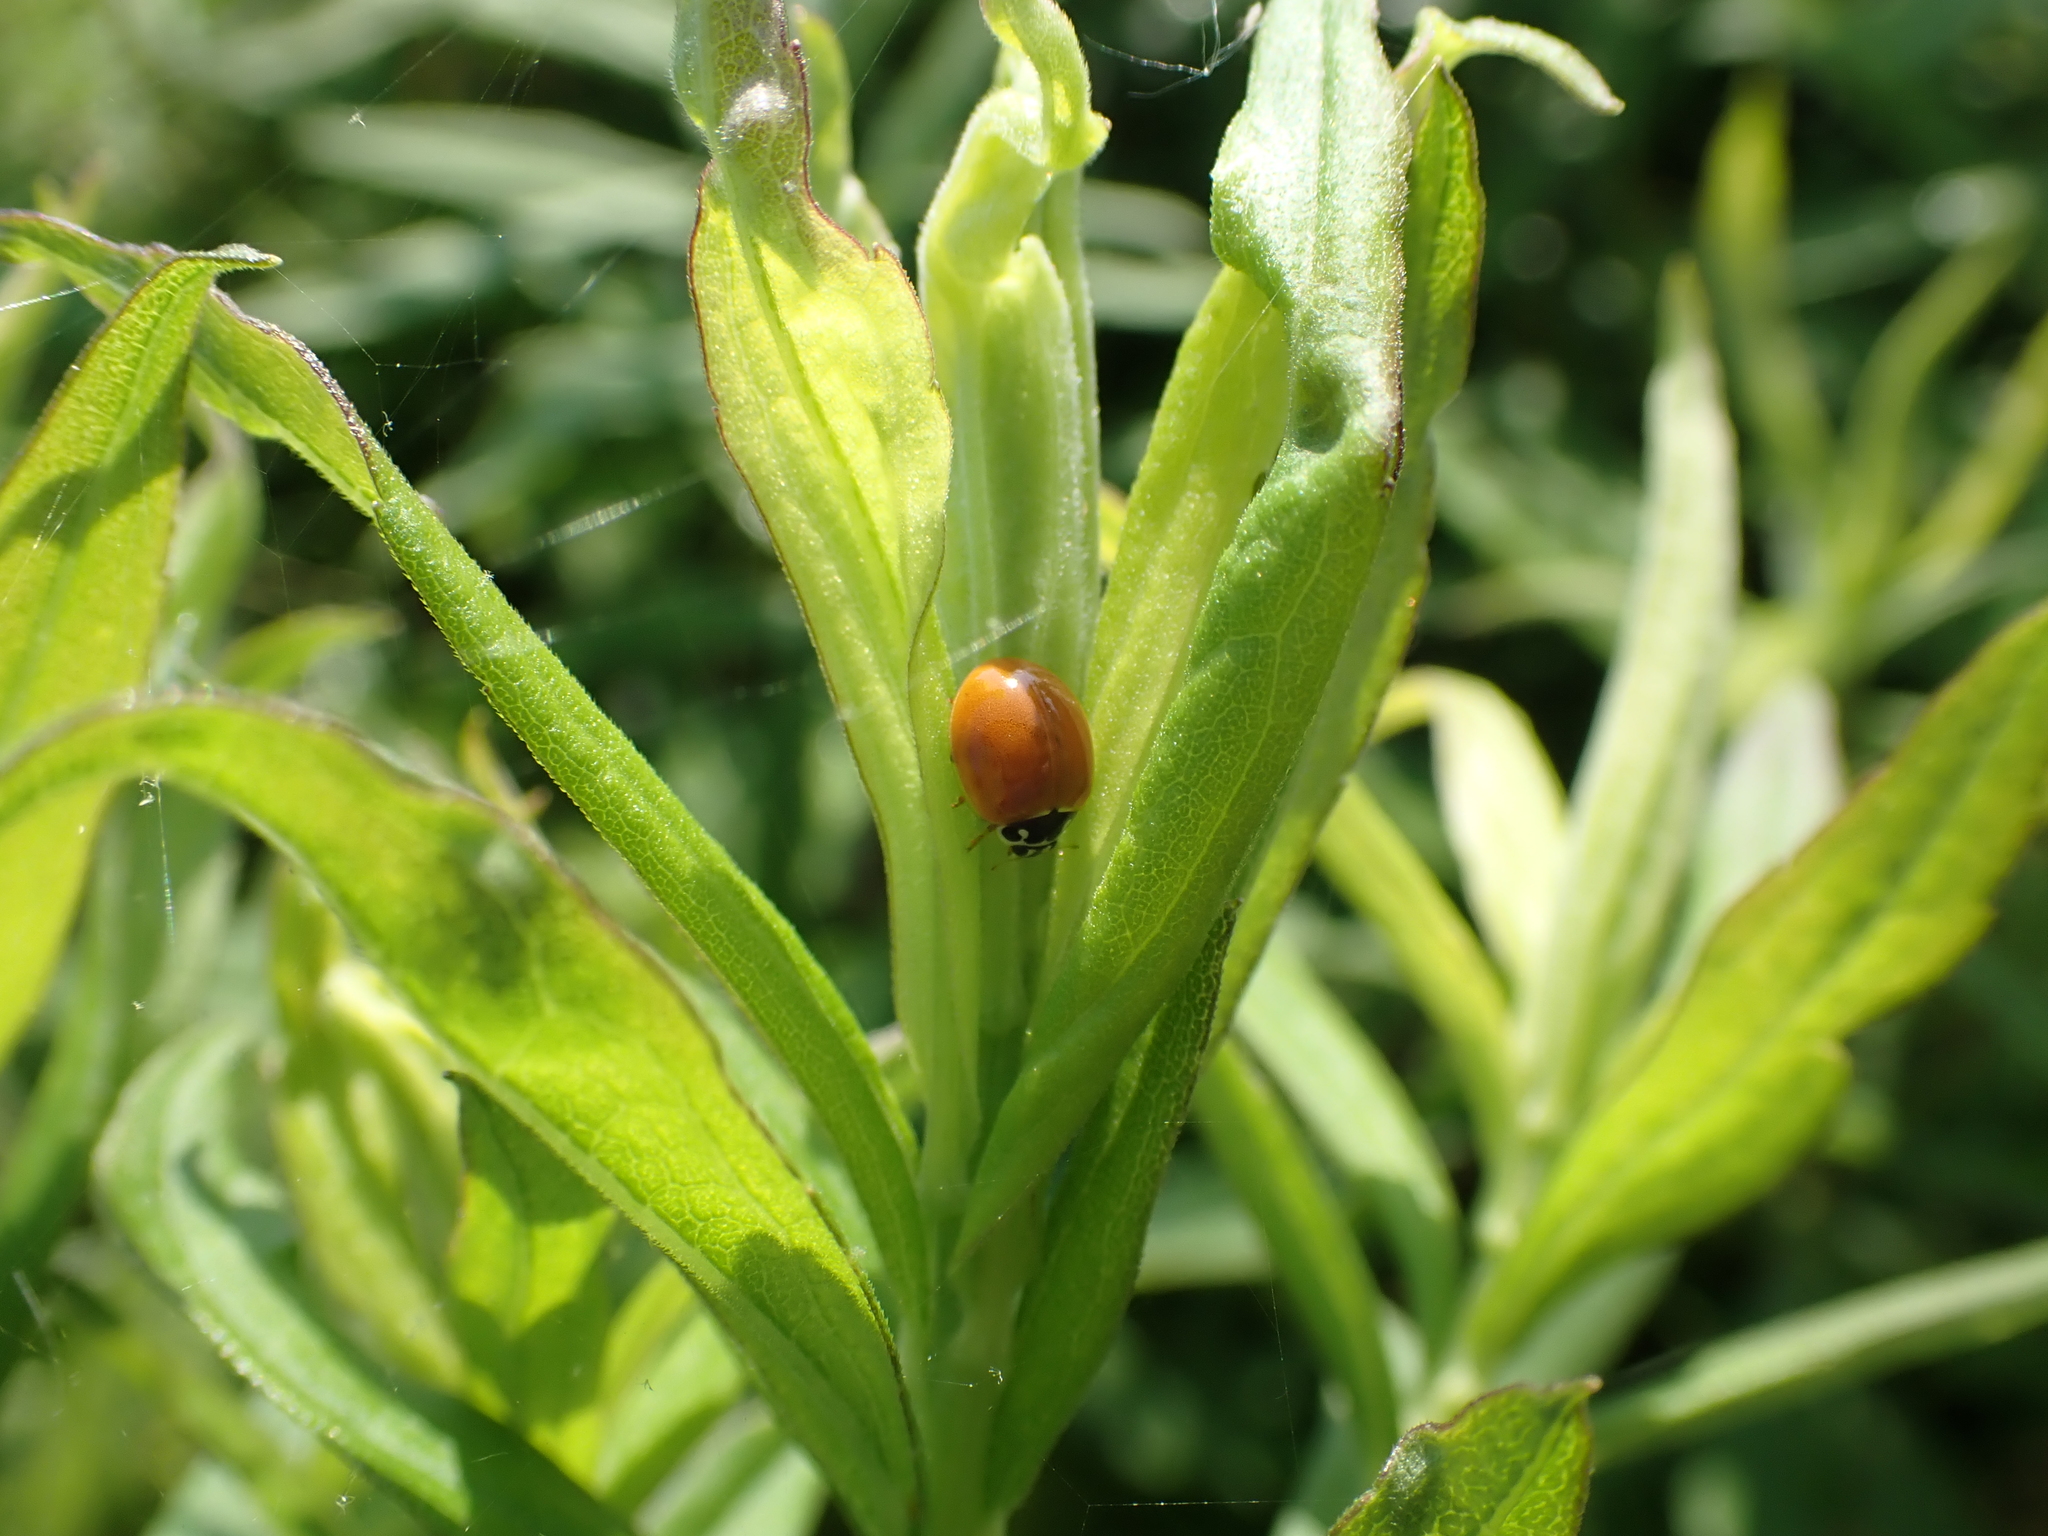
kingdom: Animalia
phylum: Arthropoda
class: Insecta
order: Coleoptera
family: Coccinellidae
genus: Cycloneda
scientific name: Cycloneda munda
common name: Polished lady beetle
